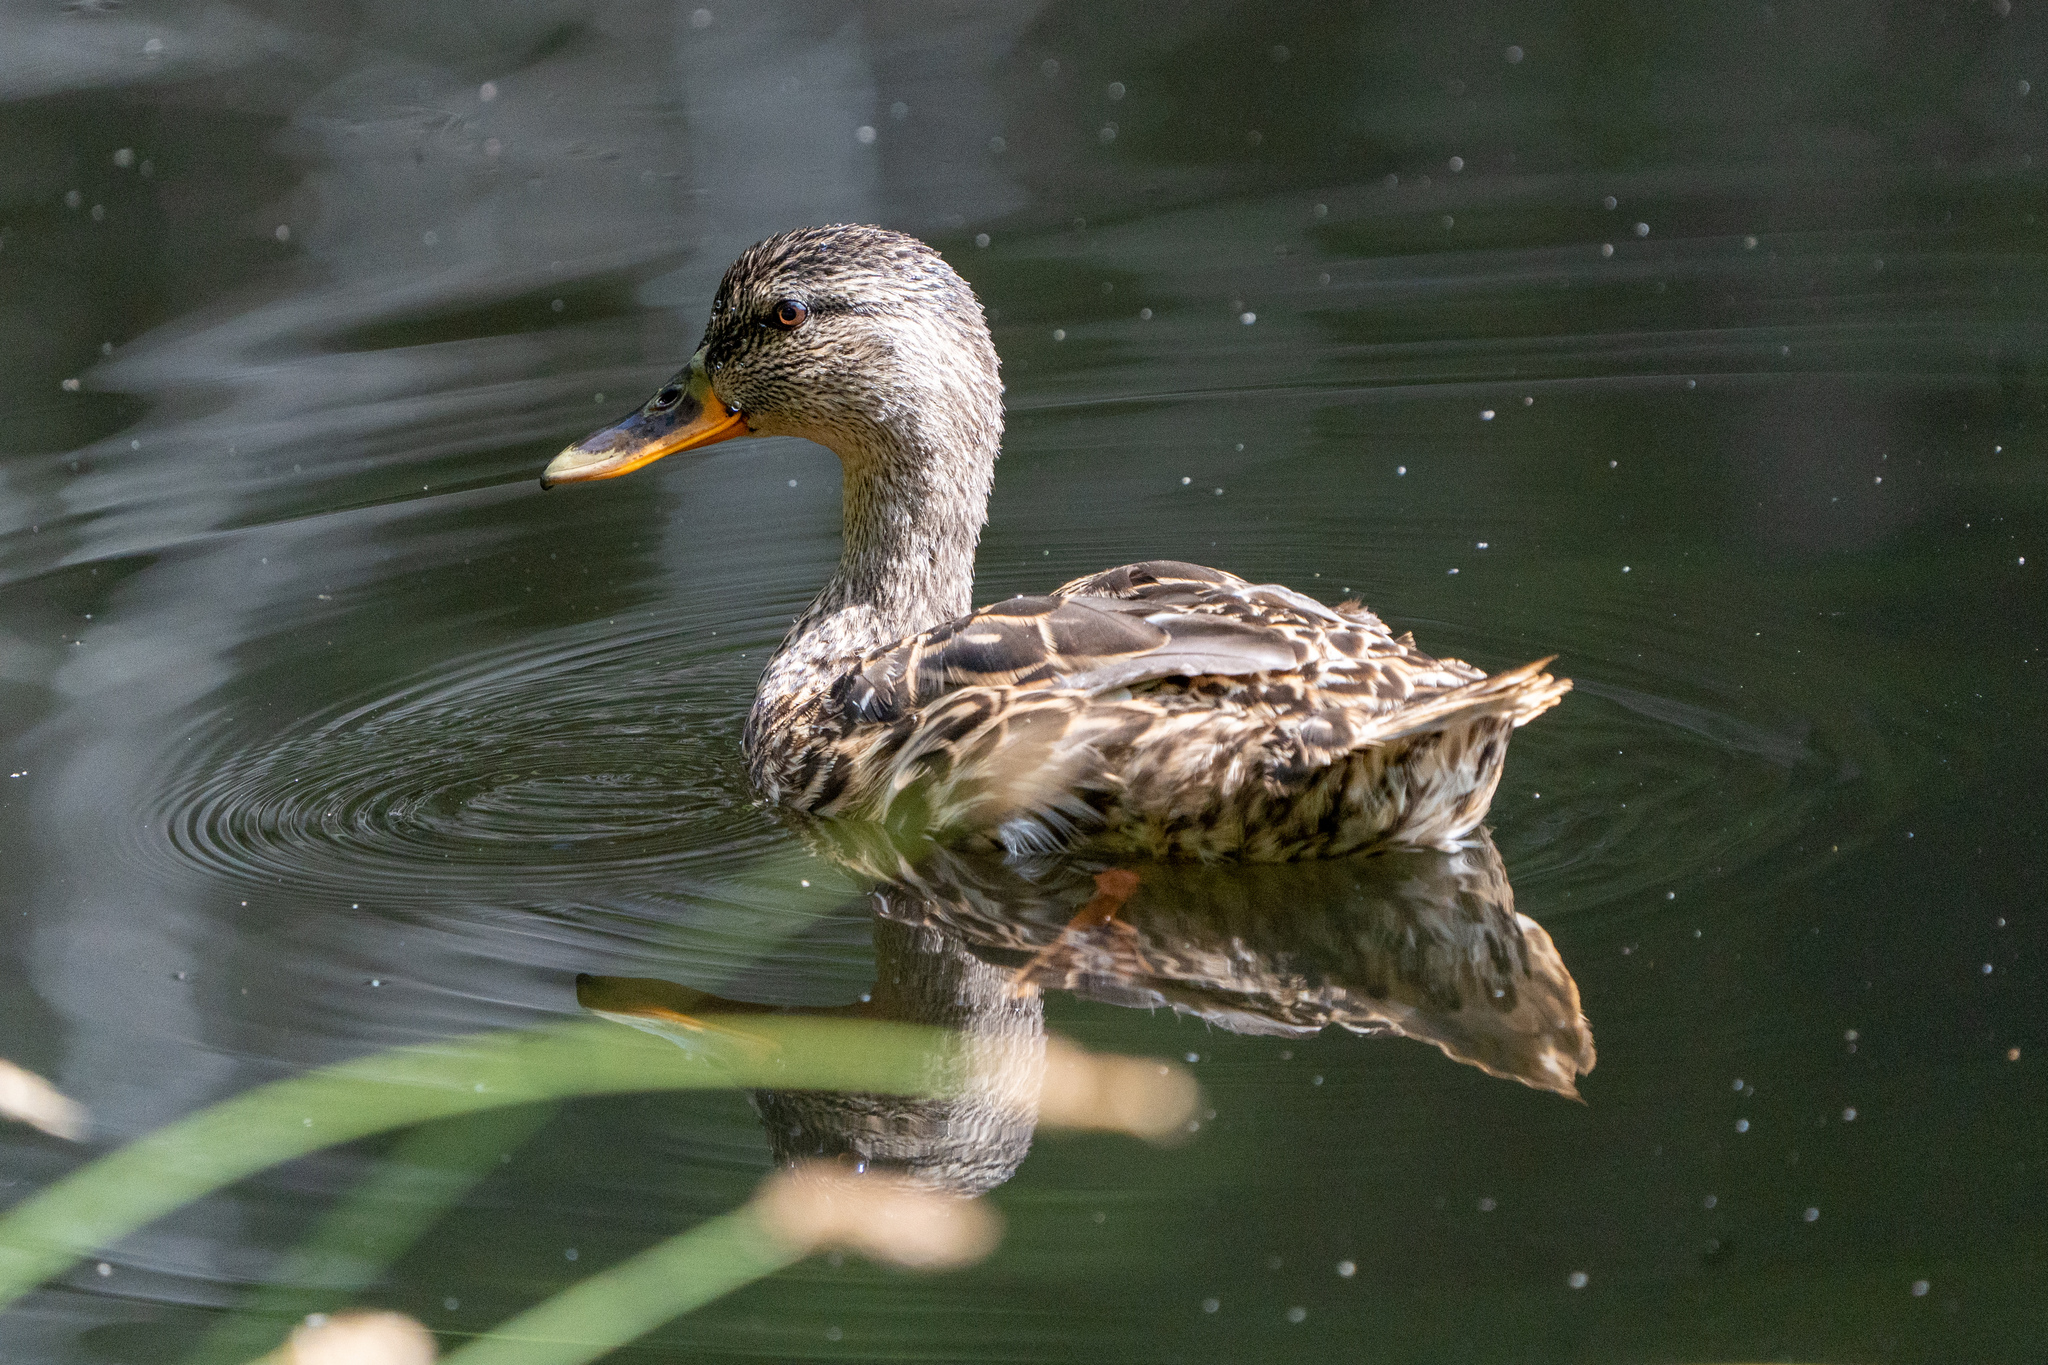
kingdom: Animalia
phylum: Chordata
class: Aves
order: Anseriformes
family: Anatidae
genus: Anas
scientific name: Anas platyrhynchos
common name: Mallard
